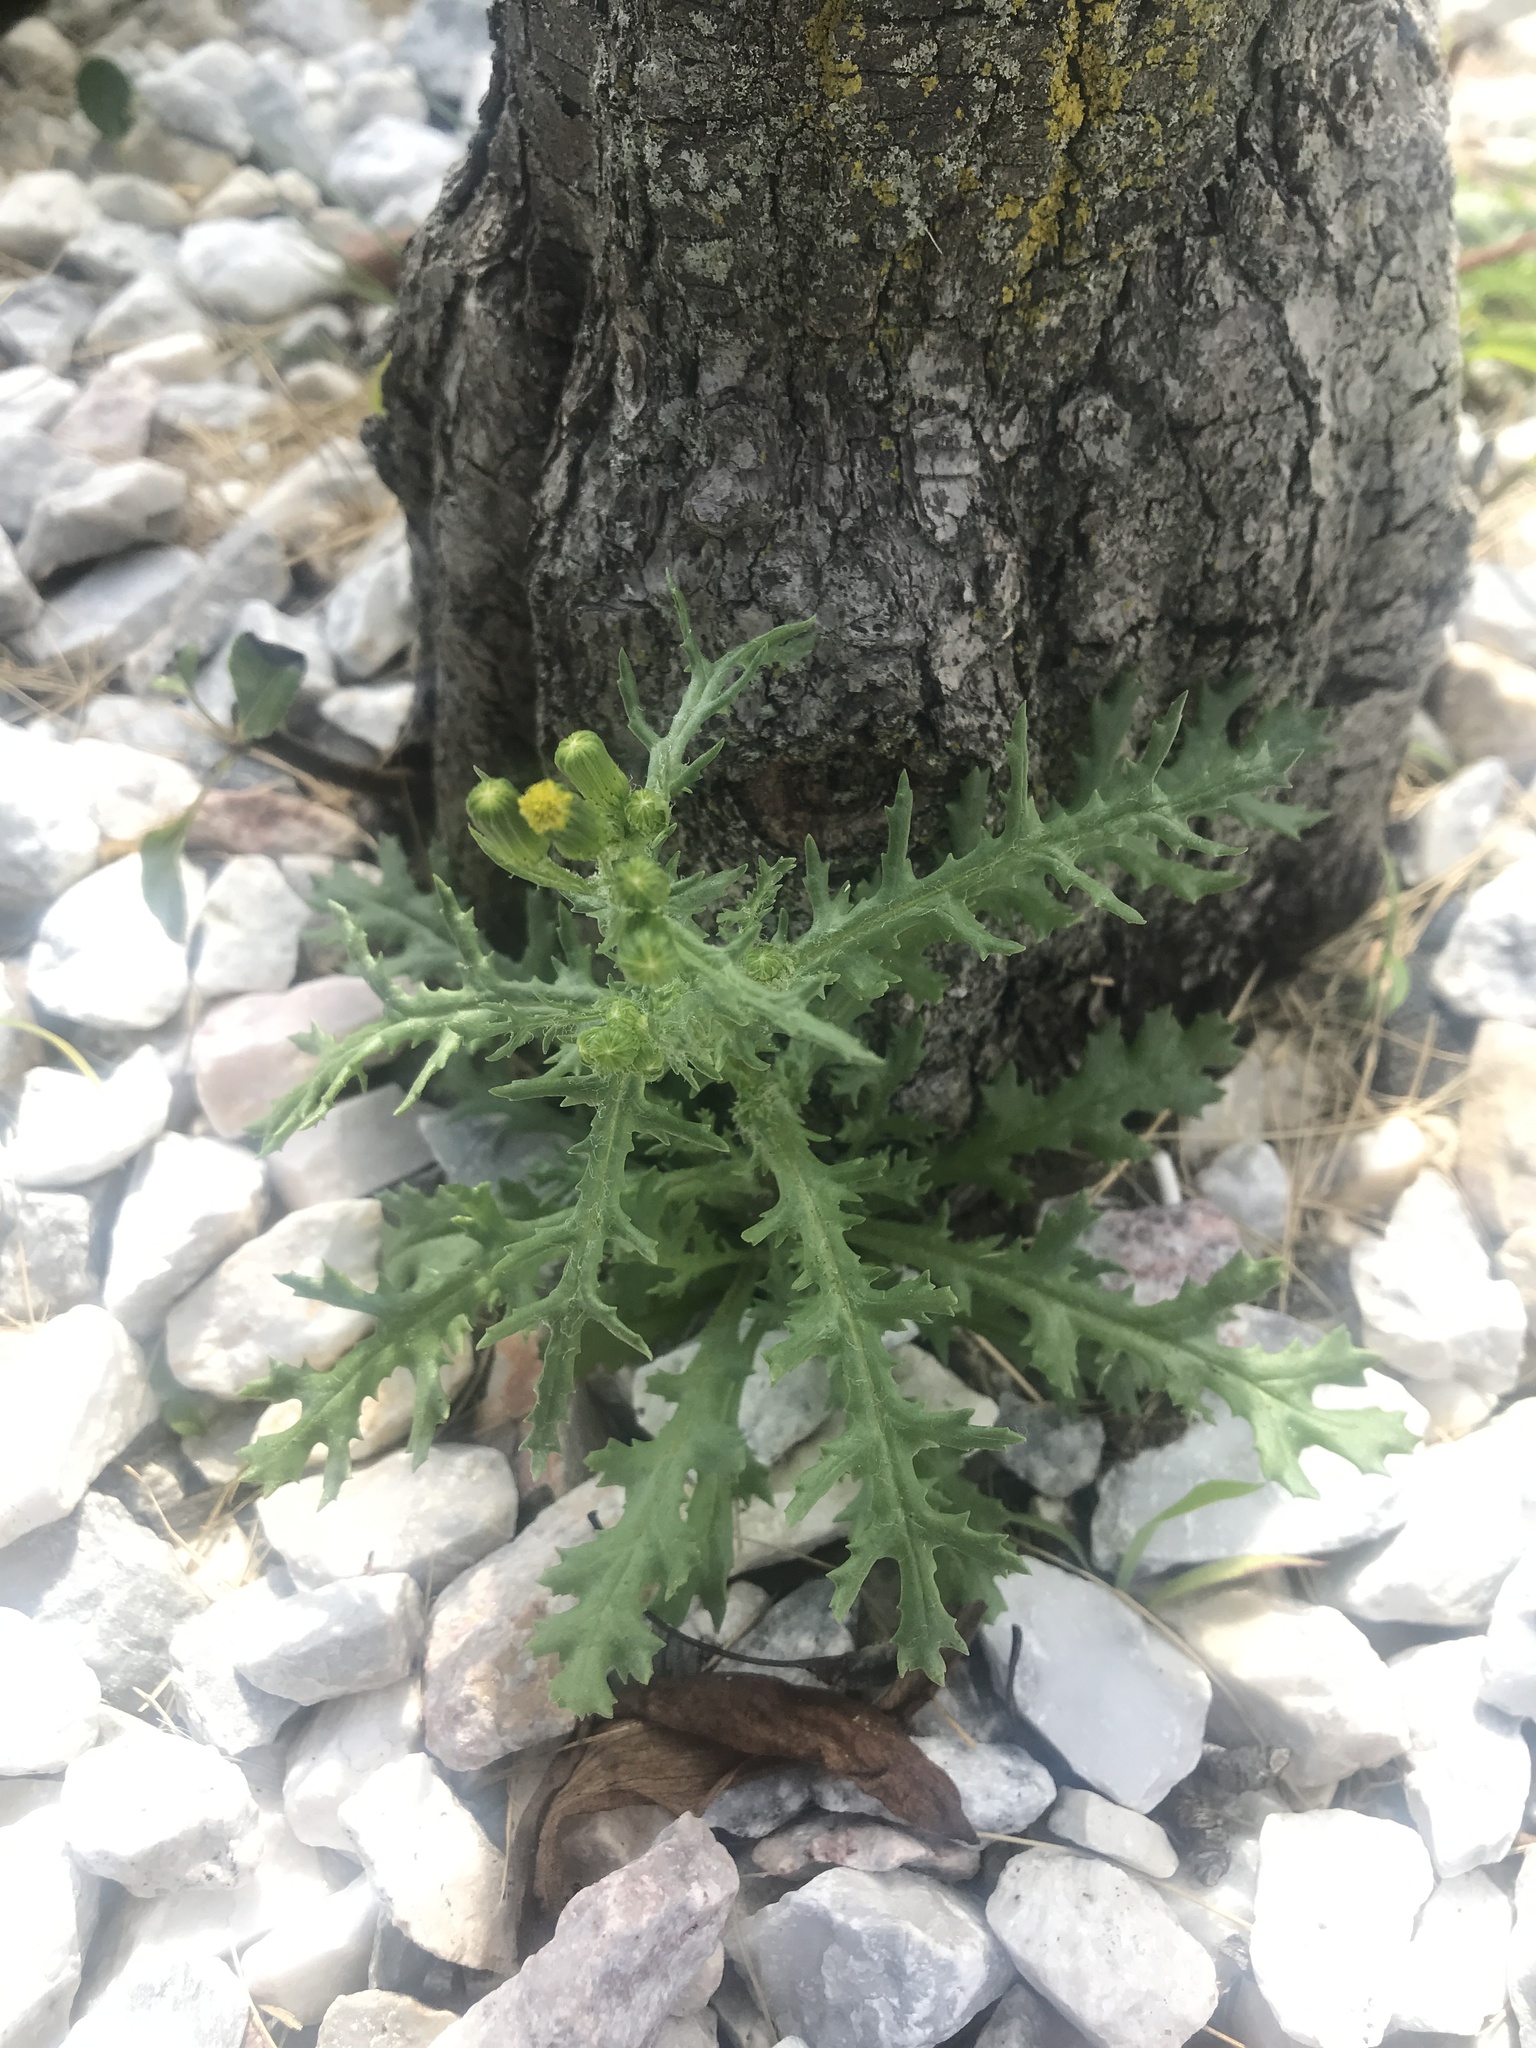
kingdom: Plantae
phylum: Tracheophyta
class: Magnoliopsida
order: Asterales
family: Asteraceae
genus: Senecio
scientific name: Senecio vulgaris
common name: Old-man-in-the-spring
